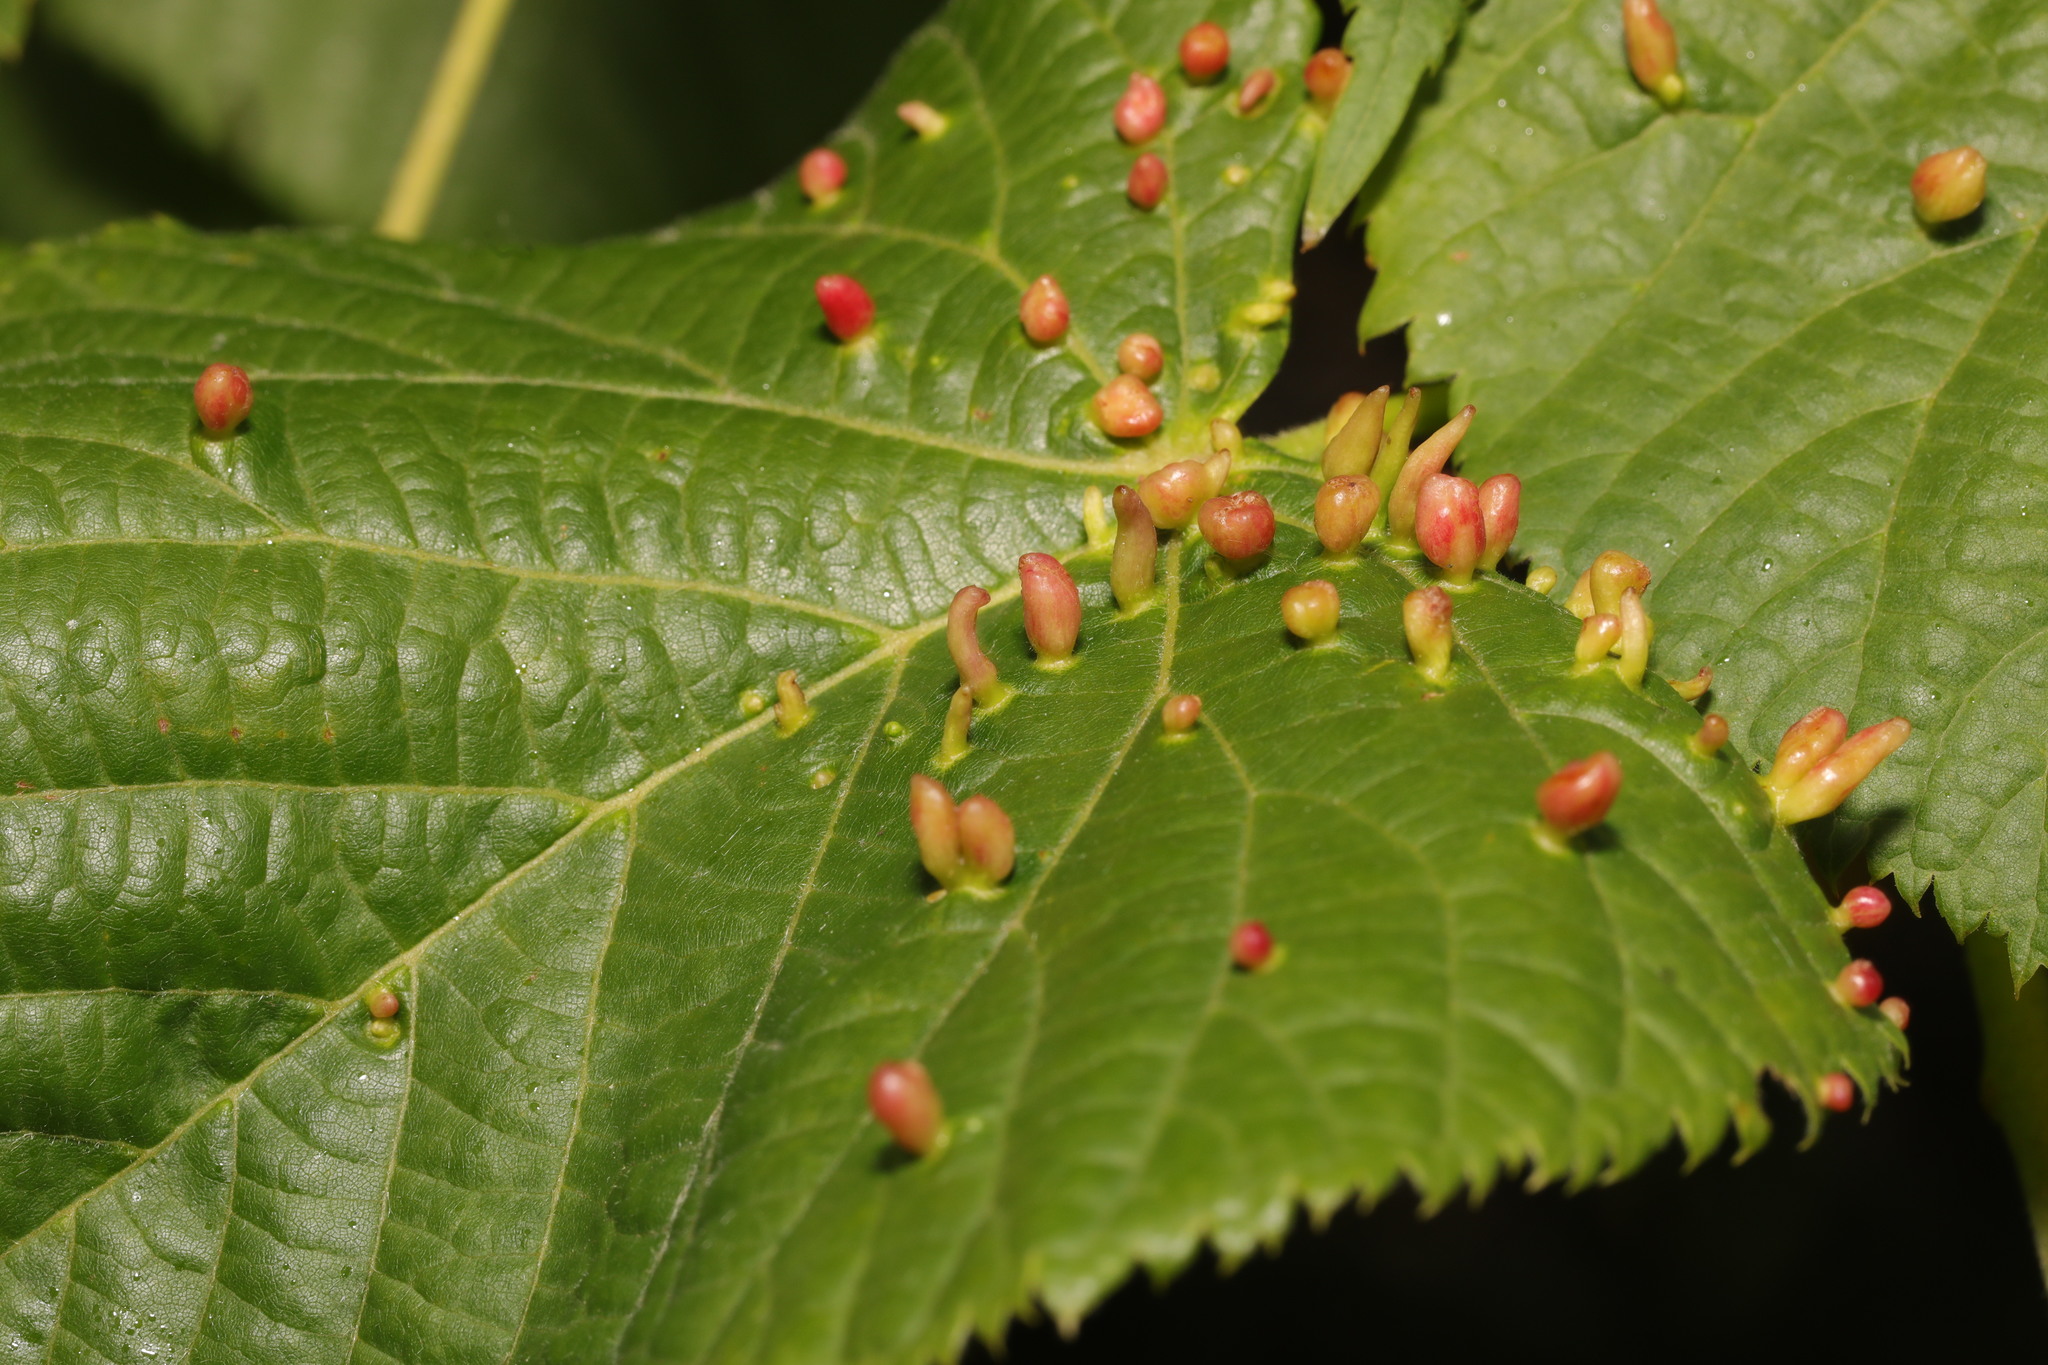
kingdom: Animalia
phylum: Arthropoda
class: Arachnida
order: Trombidiformes
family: Eriophyidae
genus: Eriophyes
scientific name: Eriophyes tiliae
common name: Red nail gall mite
